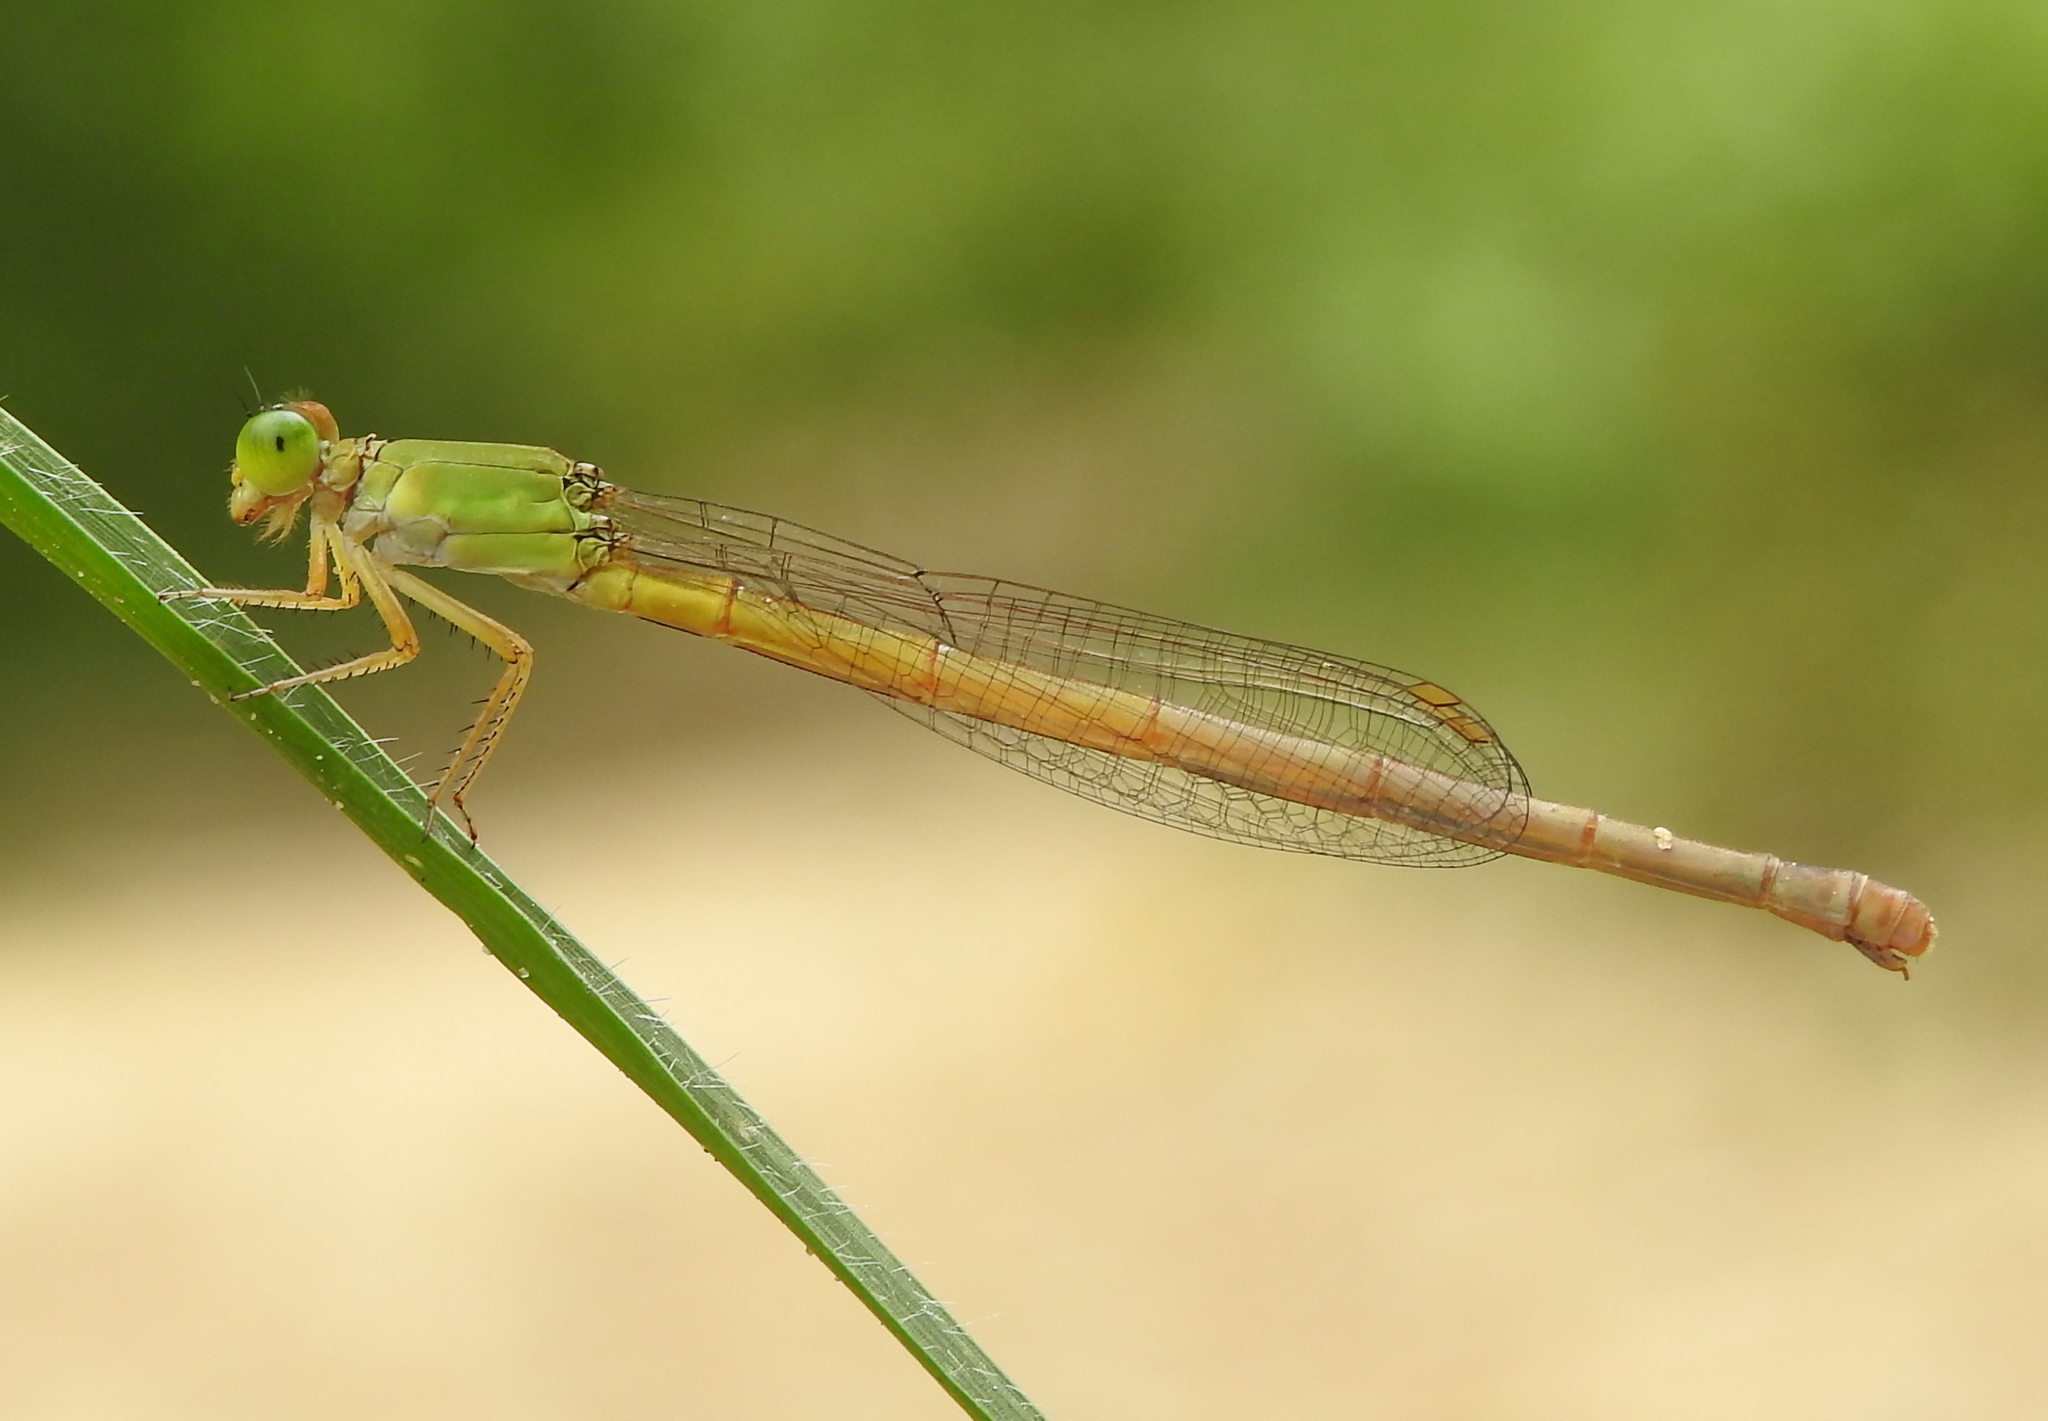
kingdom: Animalia
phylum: Arthropoda
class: Insecta
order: Odonata
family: Coenagrionidae
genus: Ceriagrion
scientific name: Ceriagrion coromandelianum
